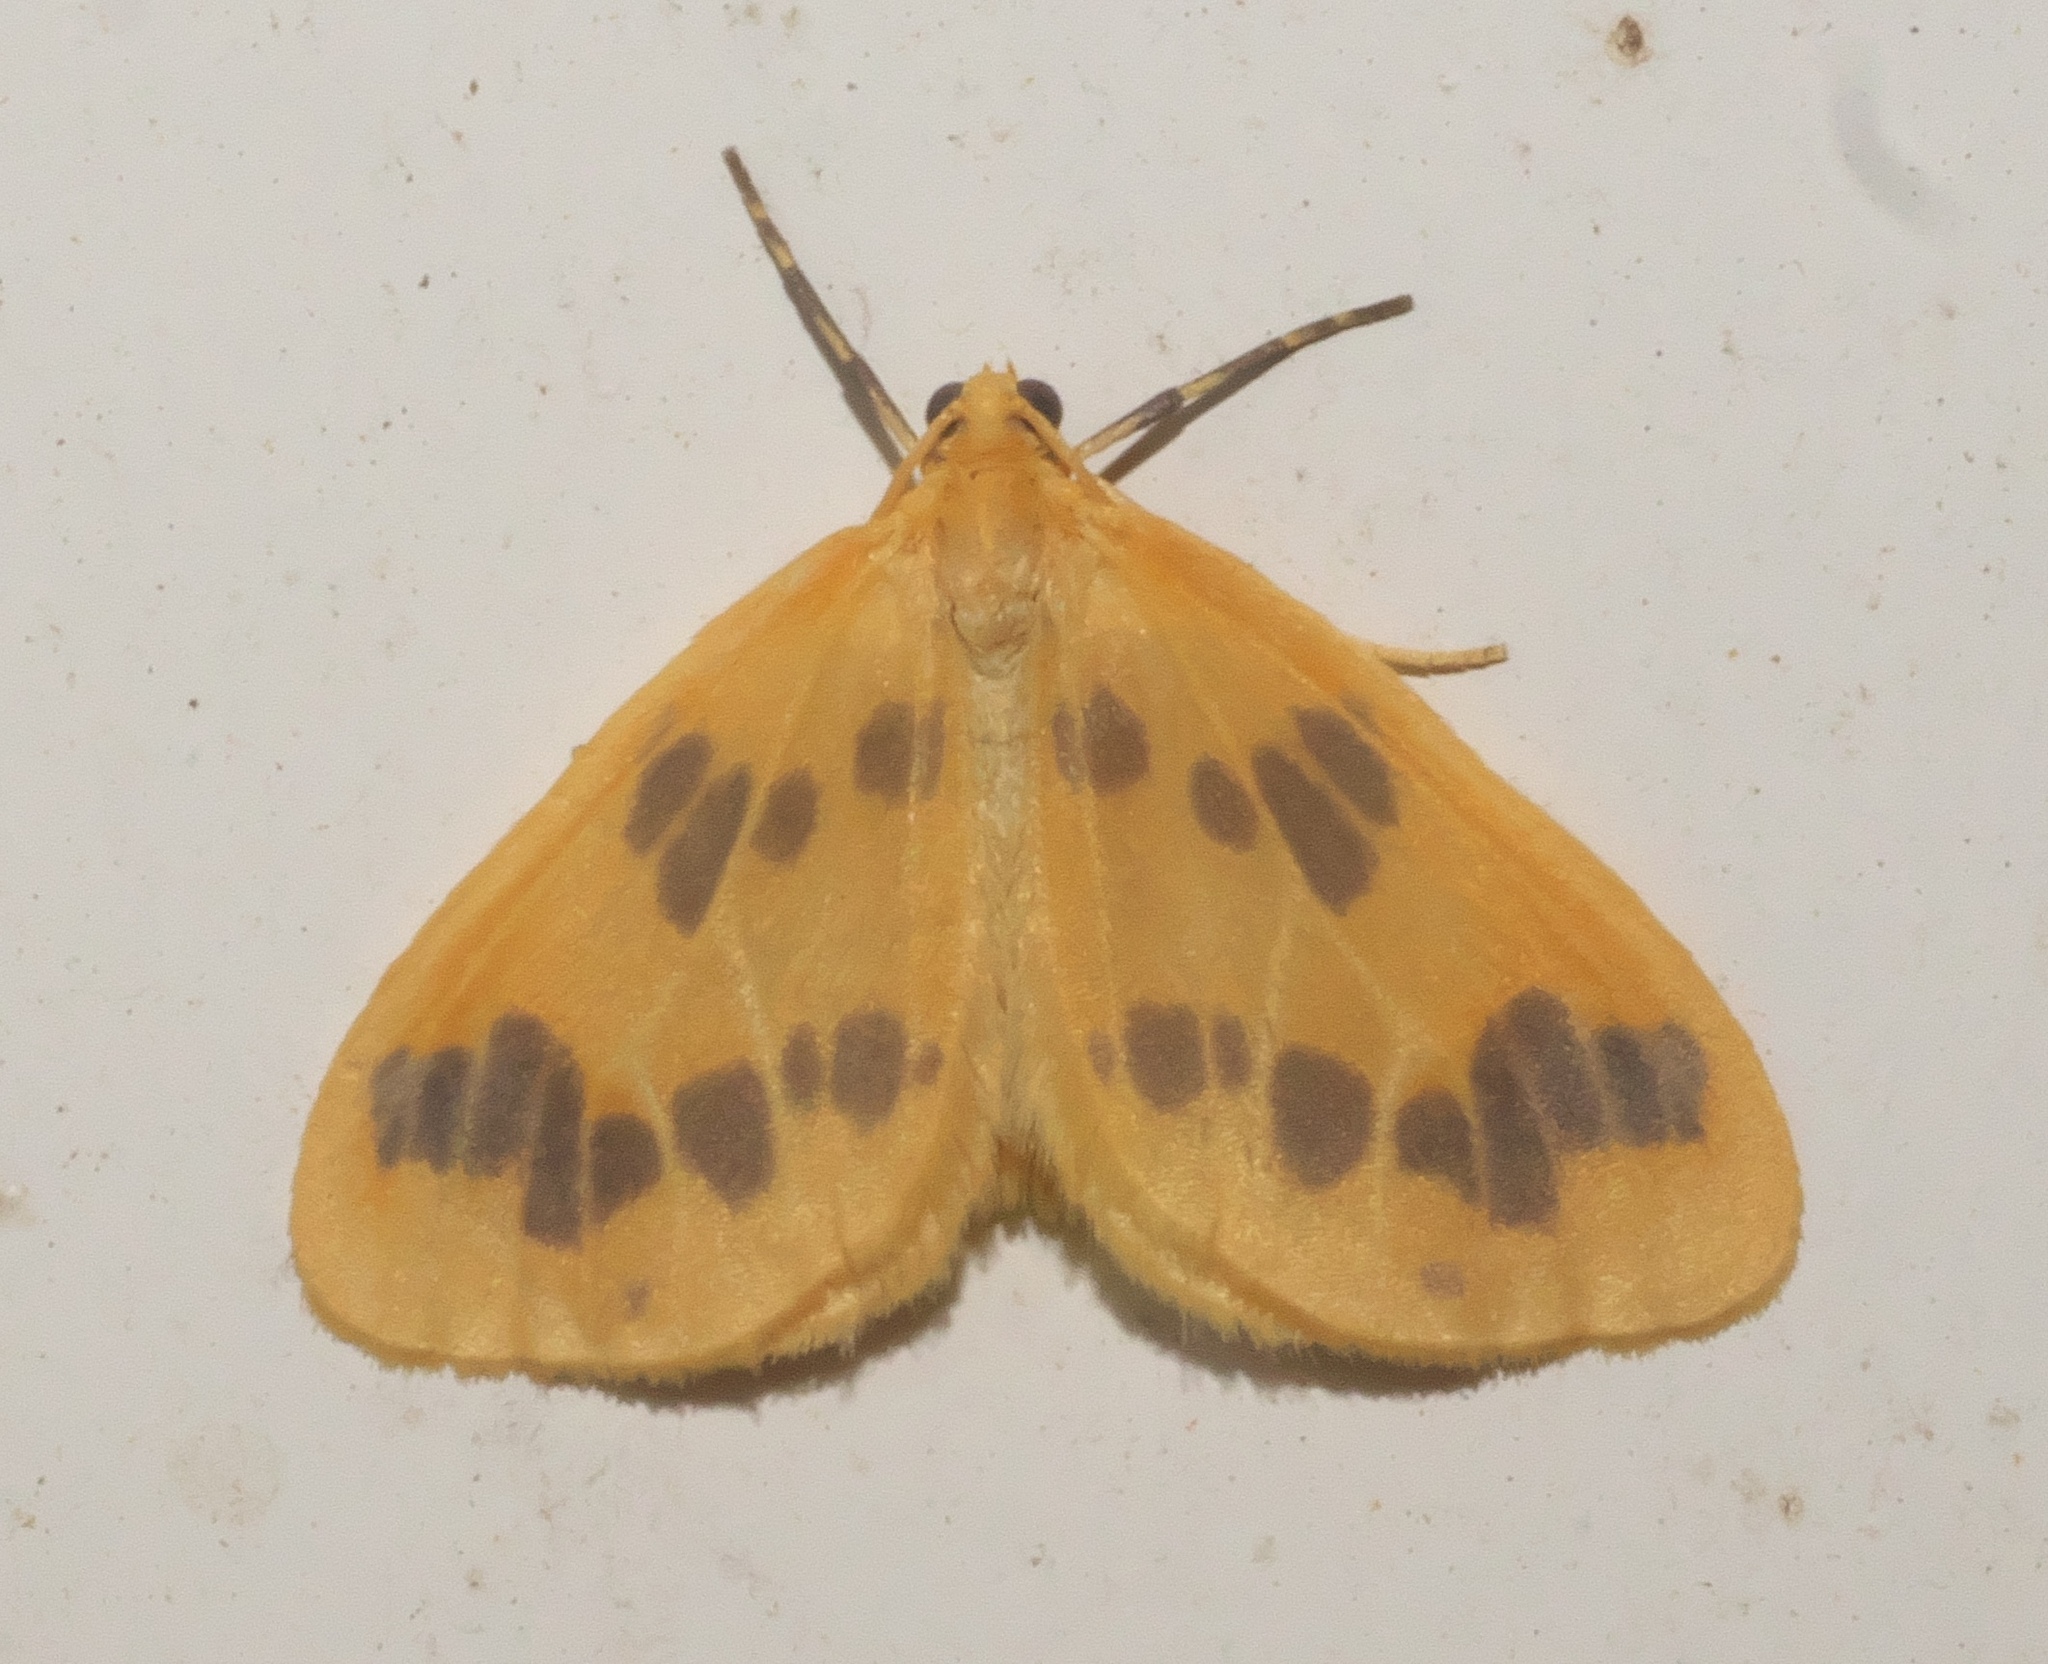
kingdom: Animalia
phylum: Arthropoda
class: Insecta
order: Lepidoptera
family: Geometridae
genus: Eubaphe
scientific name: Eubaphe mendica
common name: Beggar
